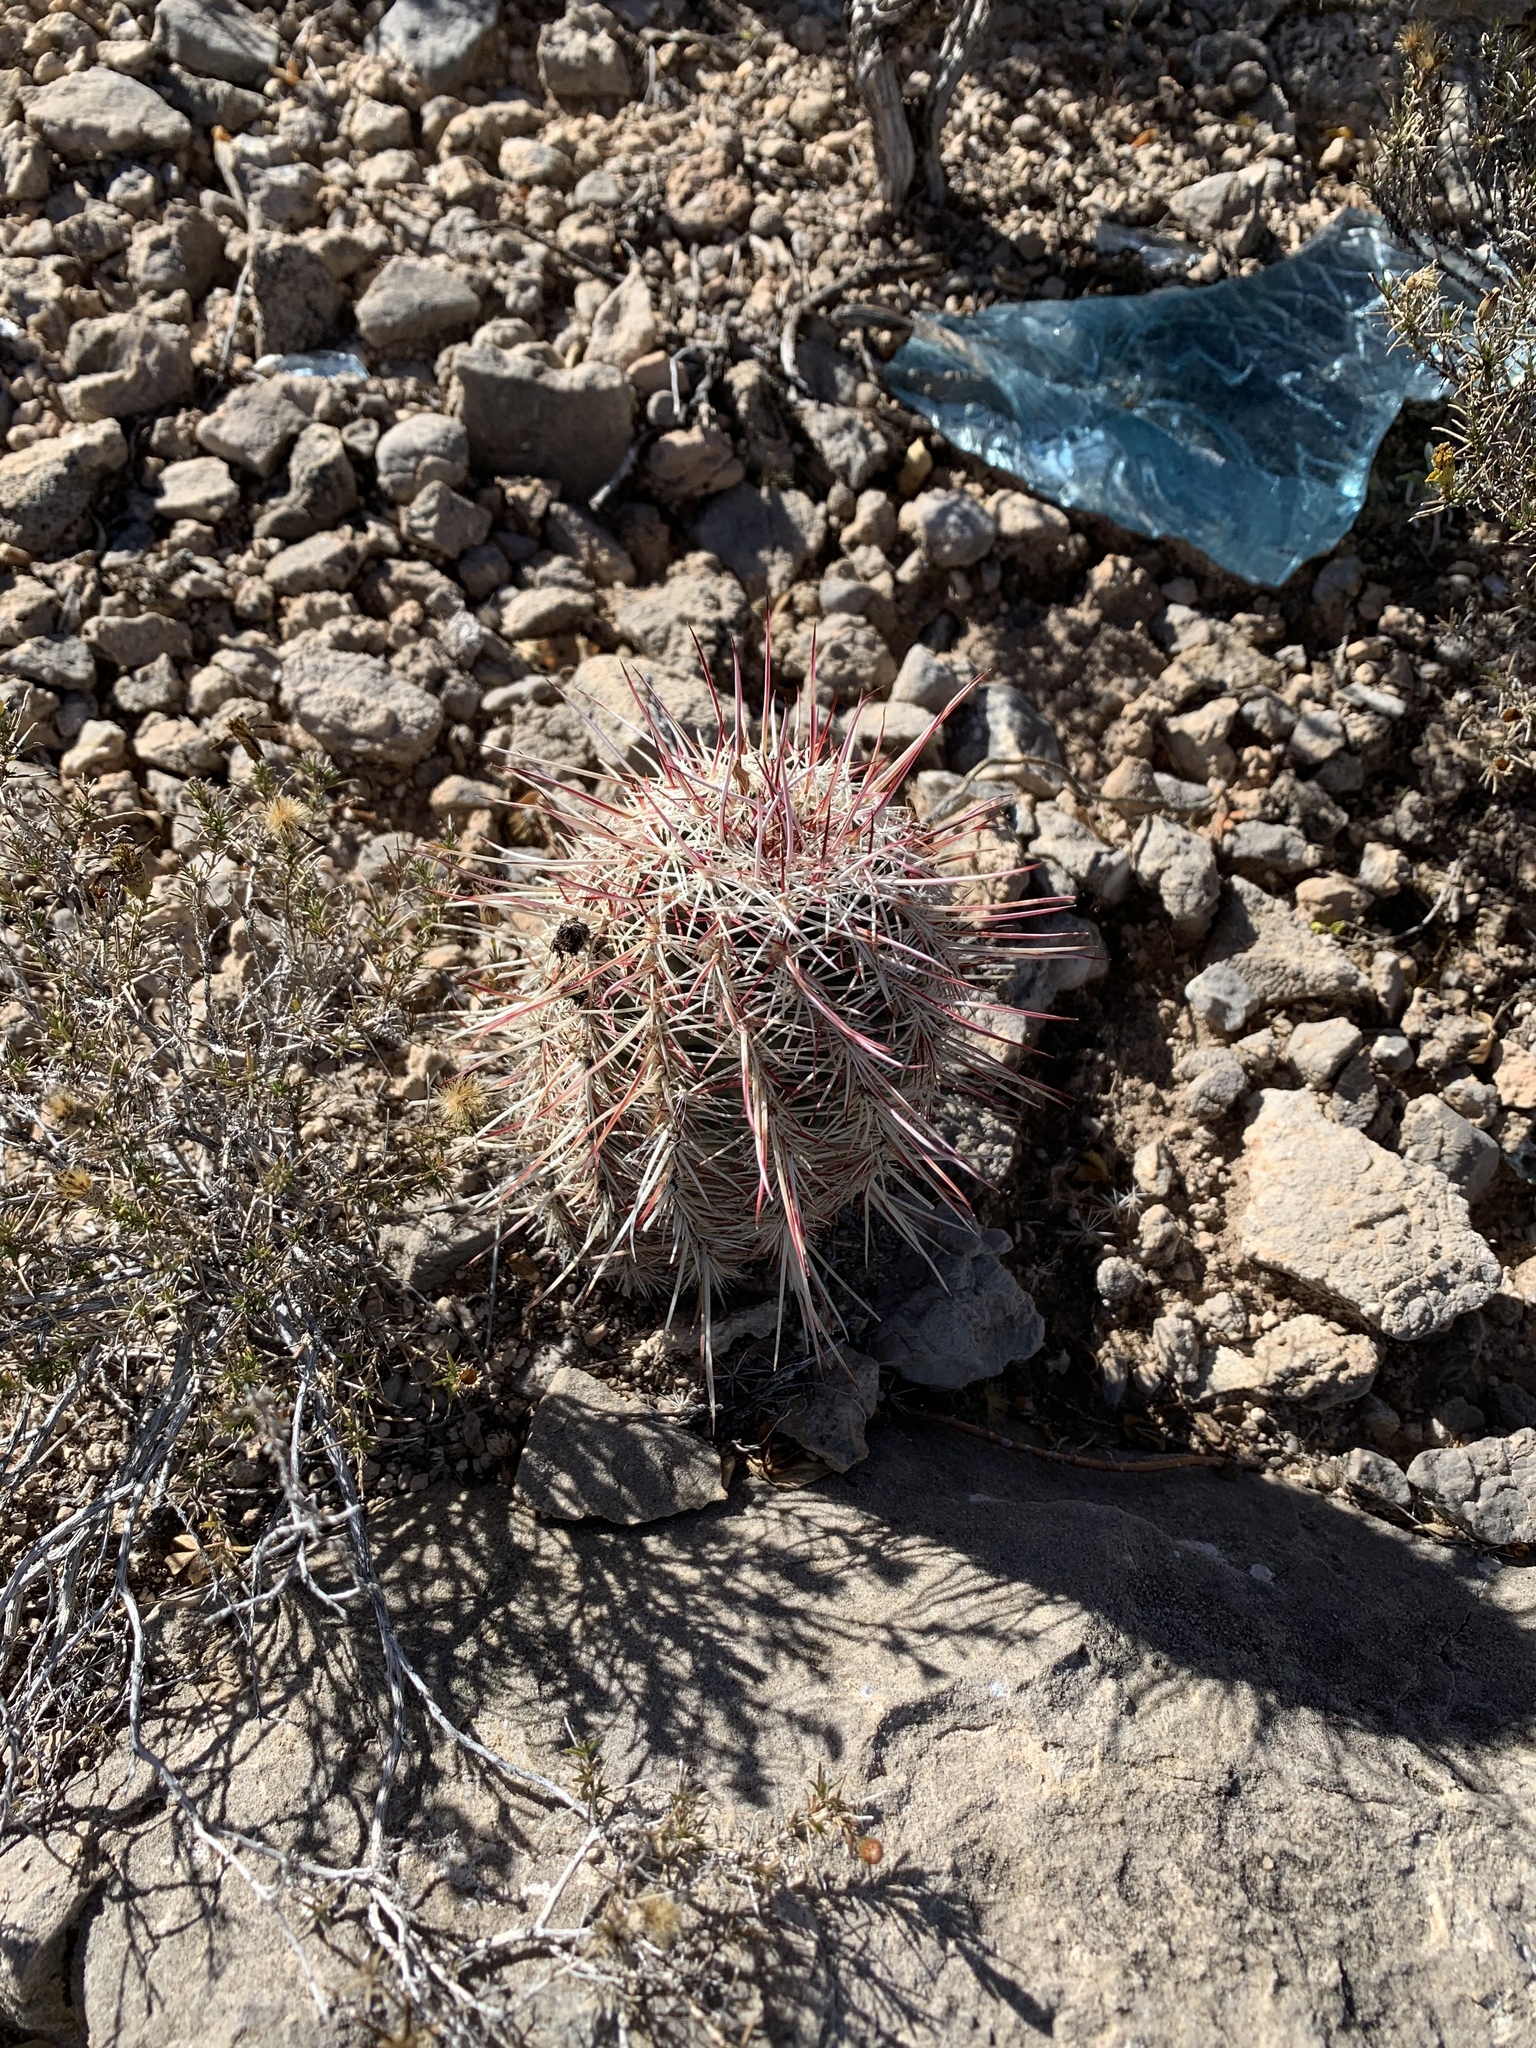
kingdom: Plantae
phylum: Tracheophyta
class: Magnoliopsida
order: Caryophyllales
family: Cactaceae
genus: Echinocereus
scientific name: Echinocereus viridiflorus
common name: Nylon hedgehog cactus
